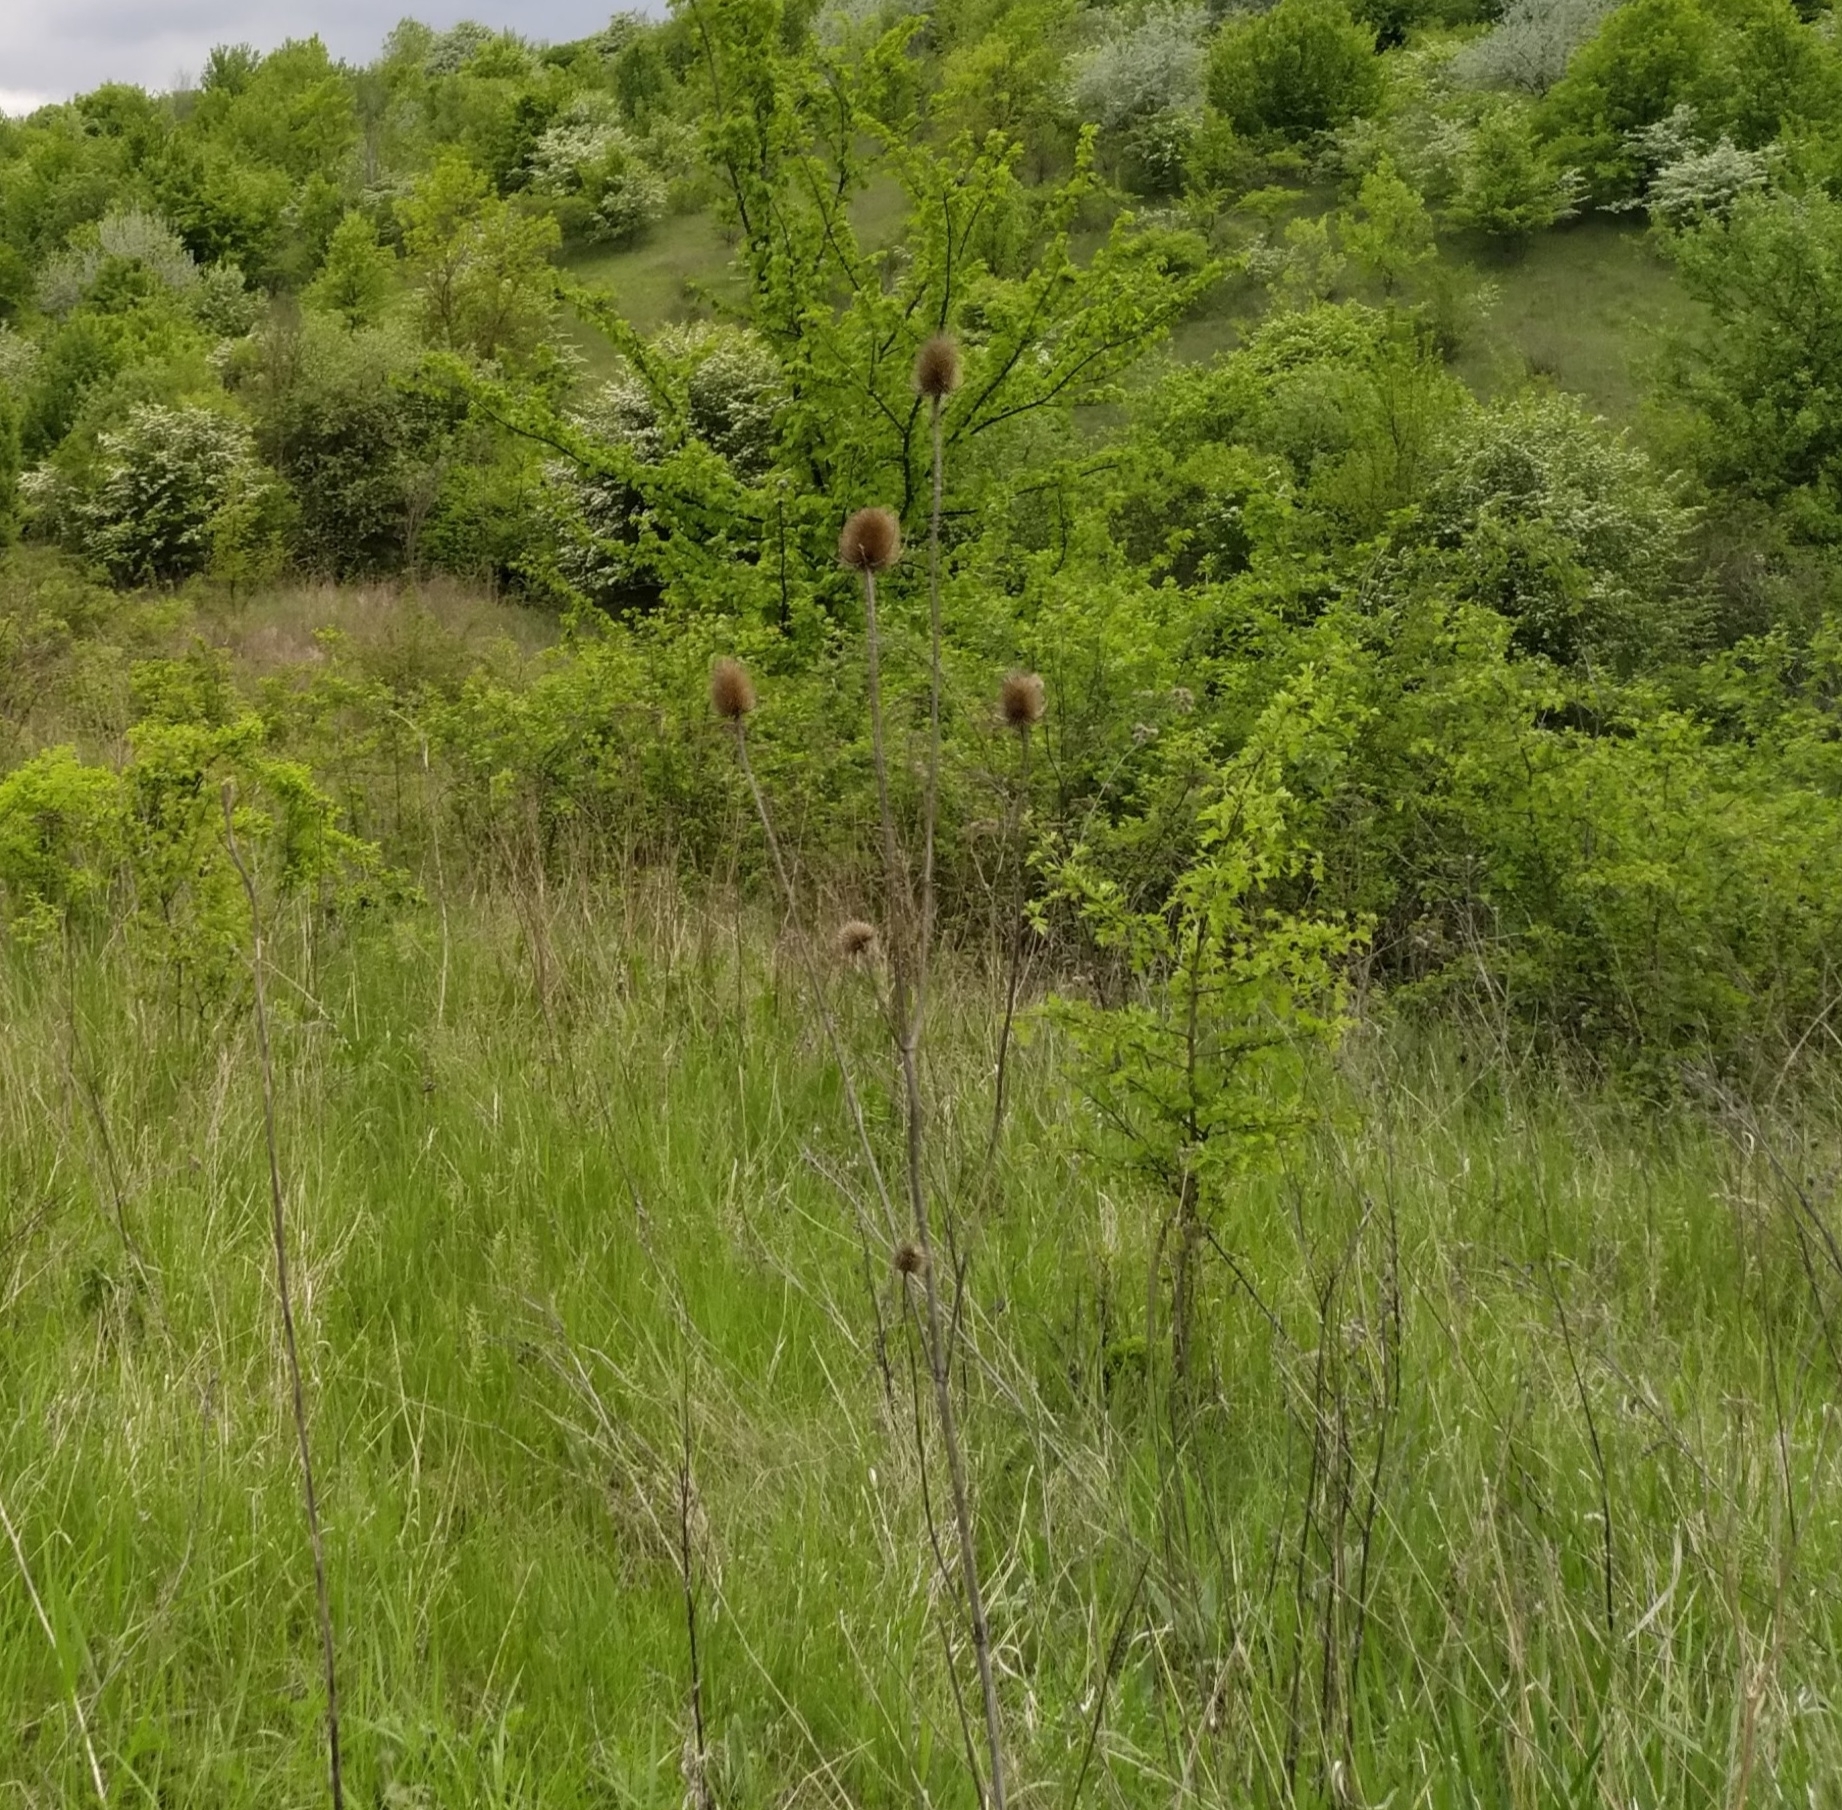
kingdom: Plantae
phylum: Tracheophyta
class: Magnoliopsida
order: Dipsacales
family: Caprifoliaceae
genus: Dipsacus
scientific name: Dipsacus fullonum
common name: Teasel
